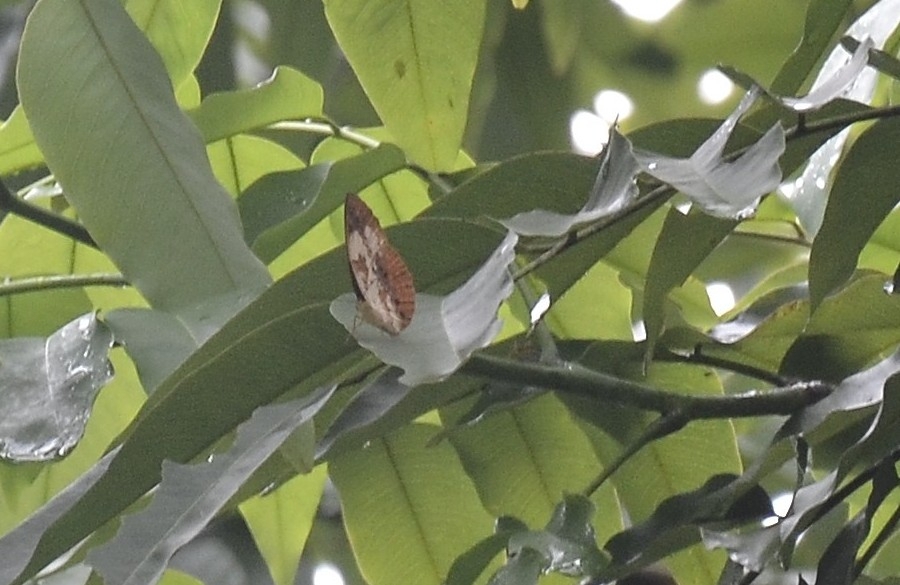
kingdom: Animalia
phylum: Arthropoda
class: Insecta
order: Lepidoptera
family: Nymphalidae
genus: Cupha
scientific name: Cupha erymanthis
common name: Rustic
